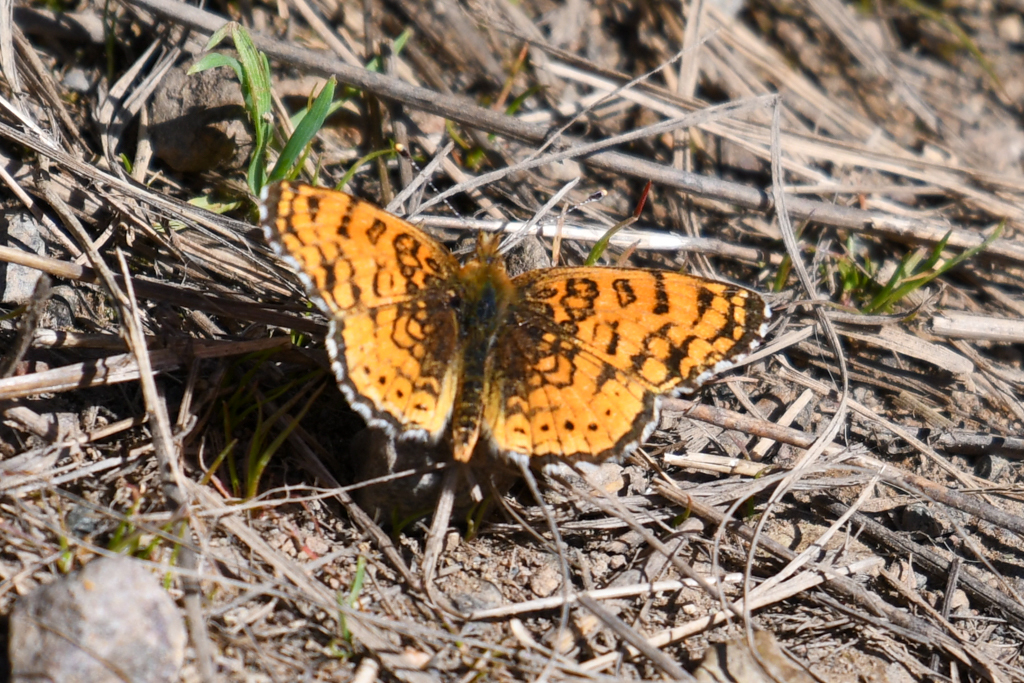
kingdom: Animalia
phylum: Arthropoda
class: Insecta
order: Lepidoptera
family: Nymphalidae
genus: Eresia
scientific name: Eresia aveyrona
